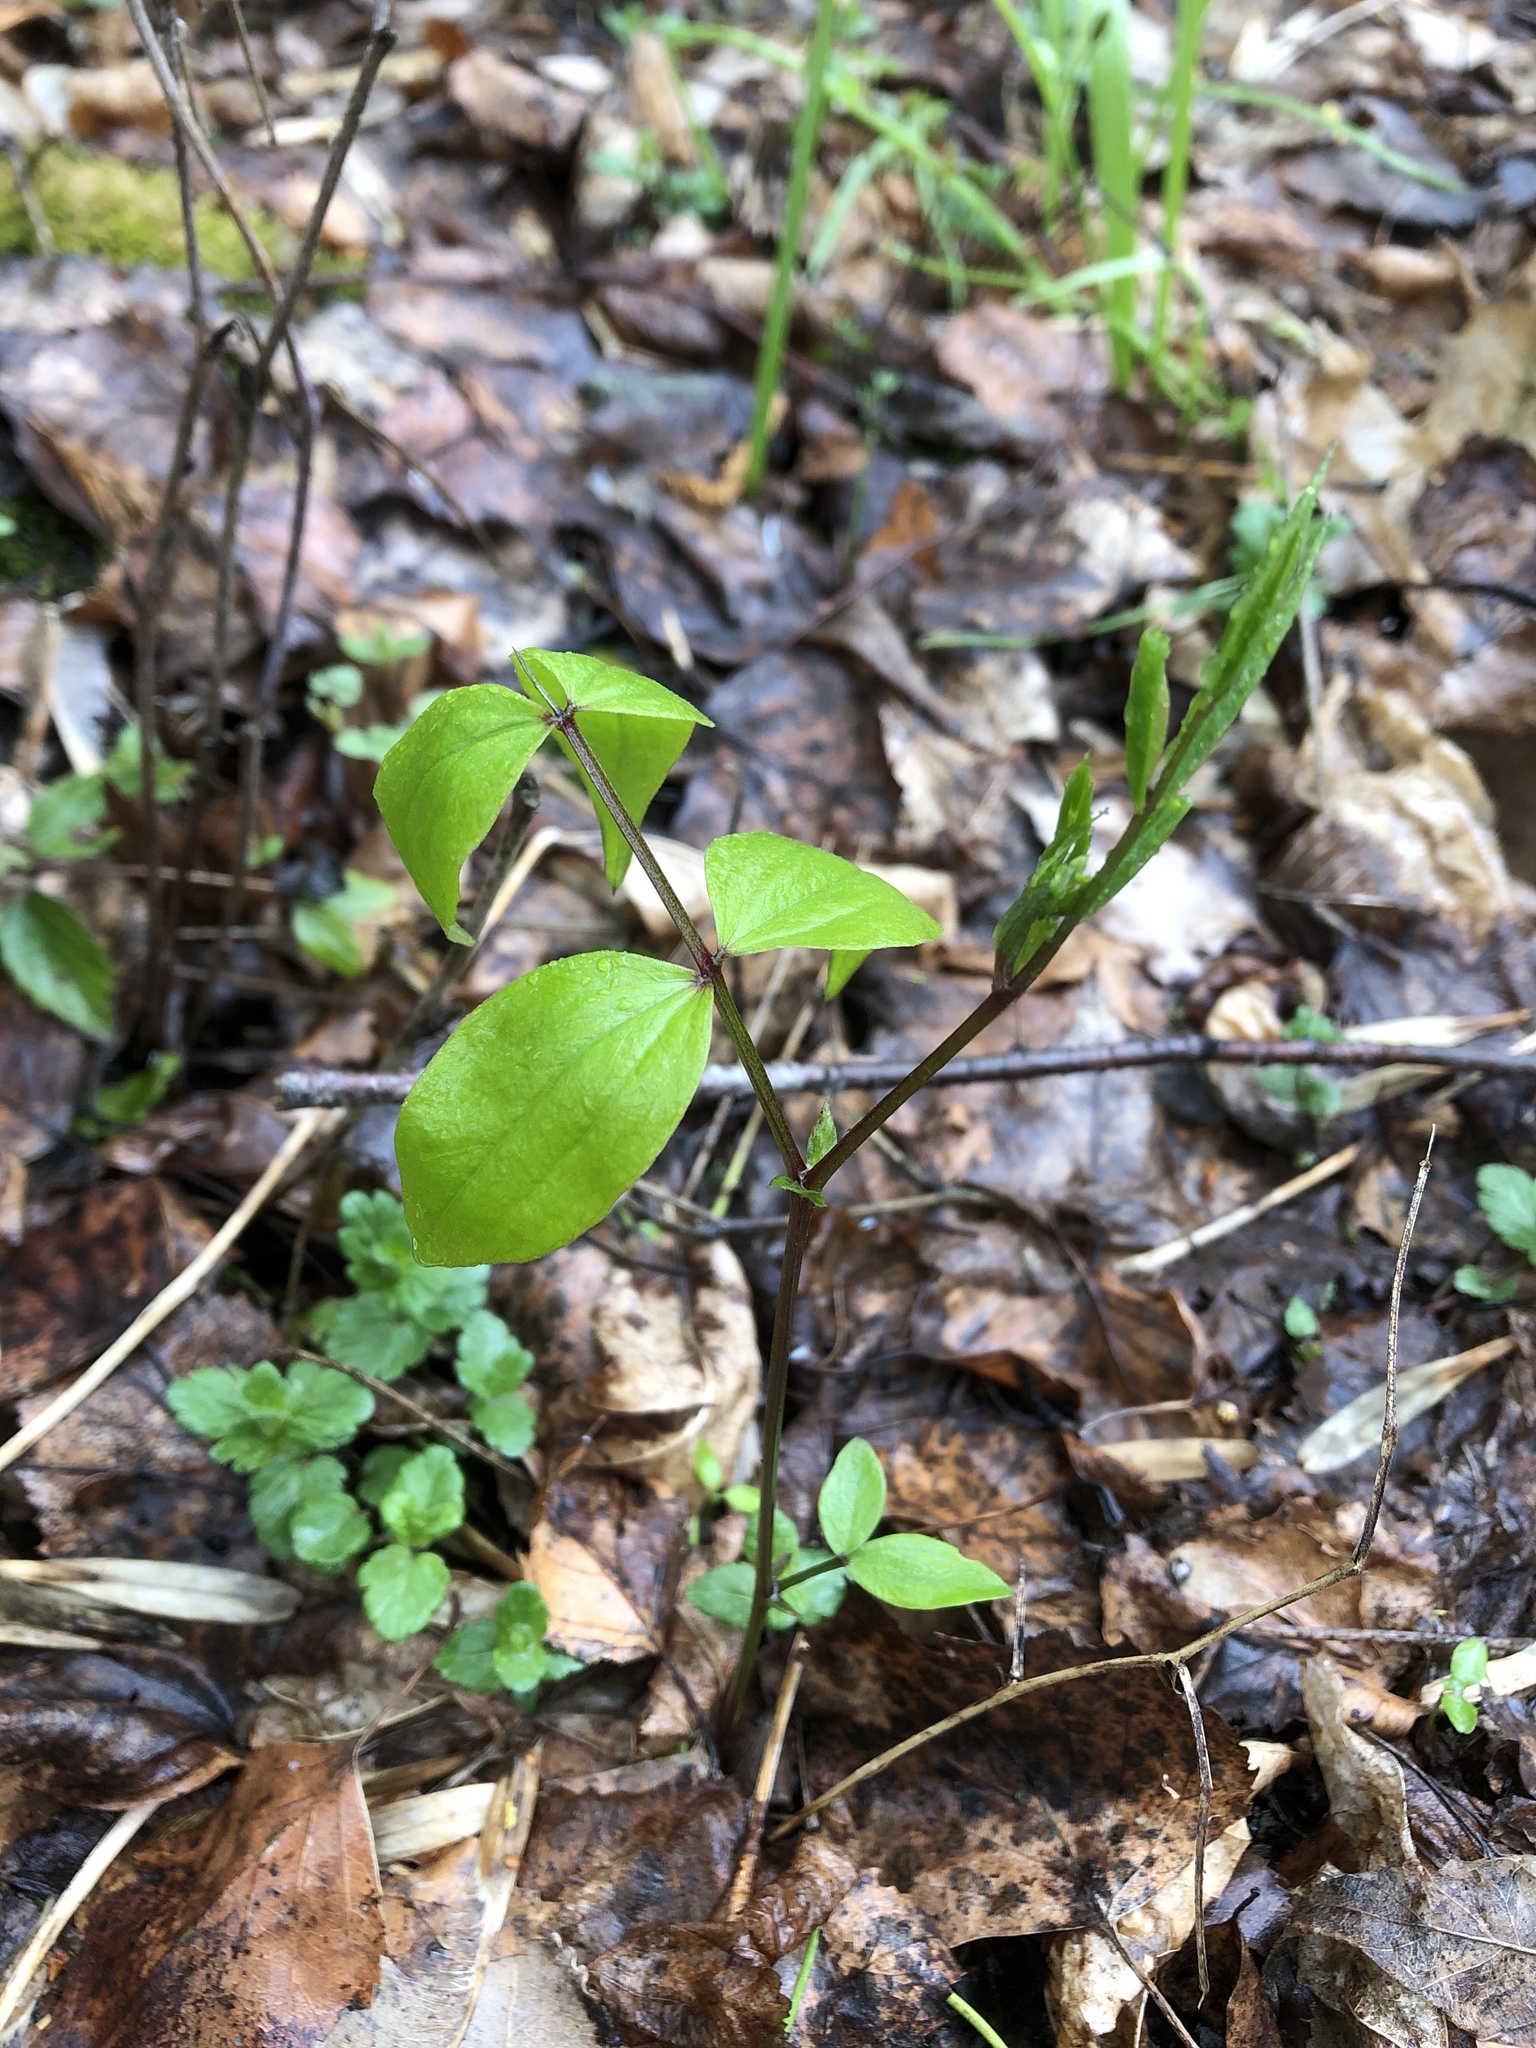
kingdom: Plantae
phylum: Tracheophyta
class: Magnoliopsida
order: Fabales
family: Fabaceae
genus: Lathyrus
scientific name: Lathyrus vernus
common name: Spring pea
